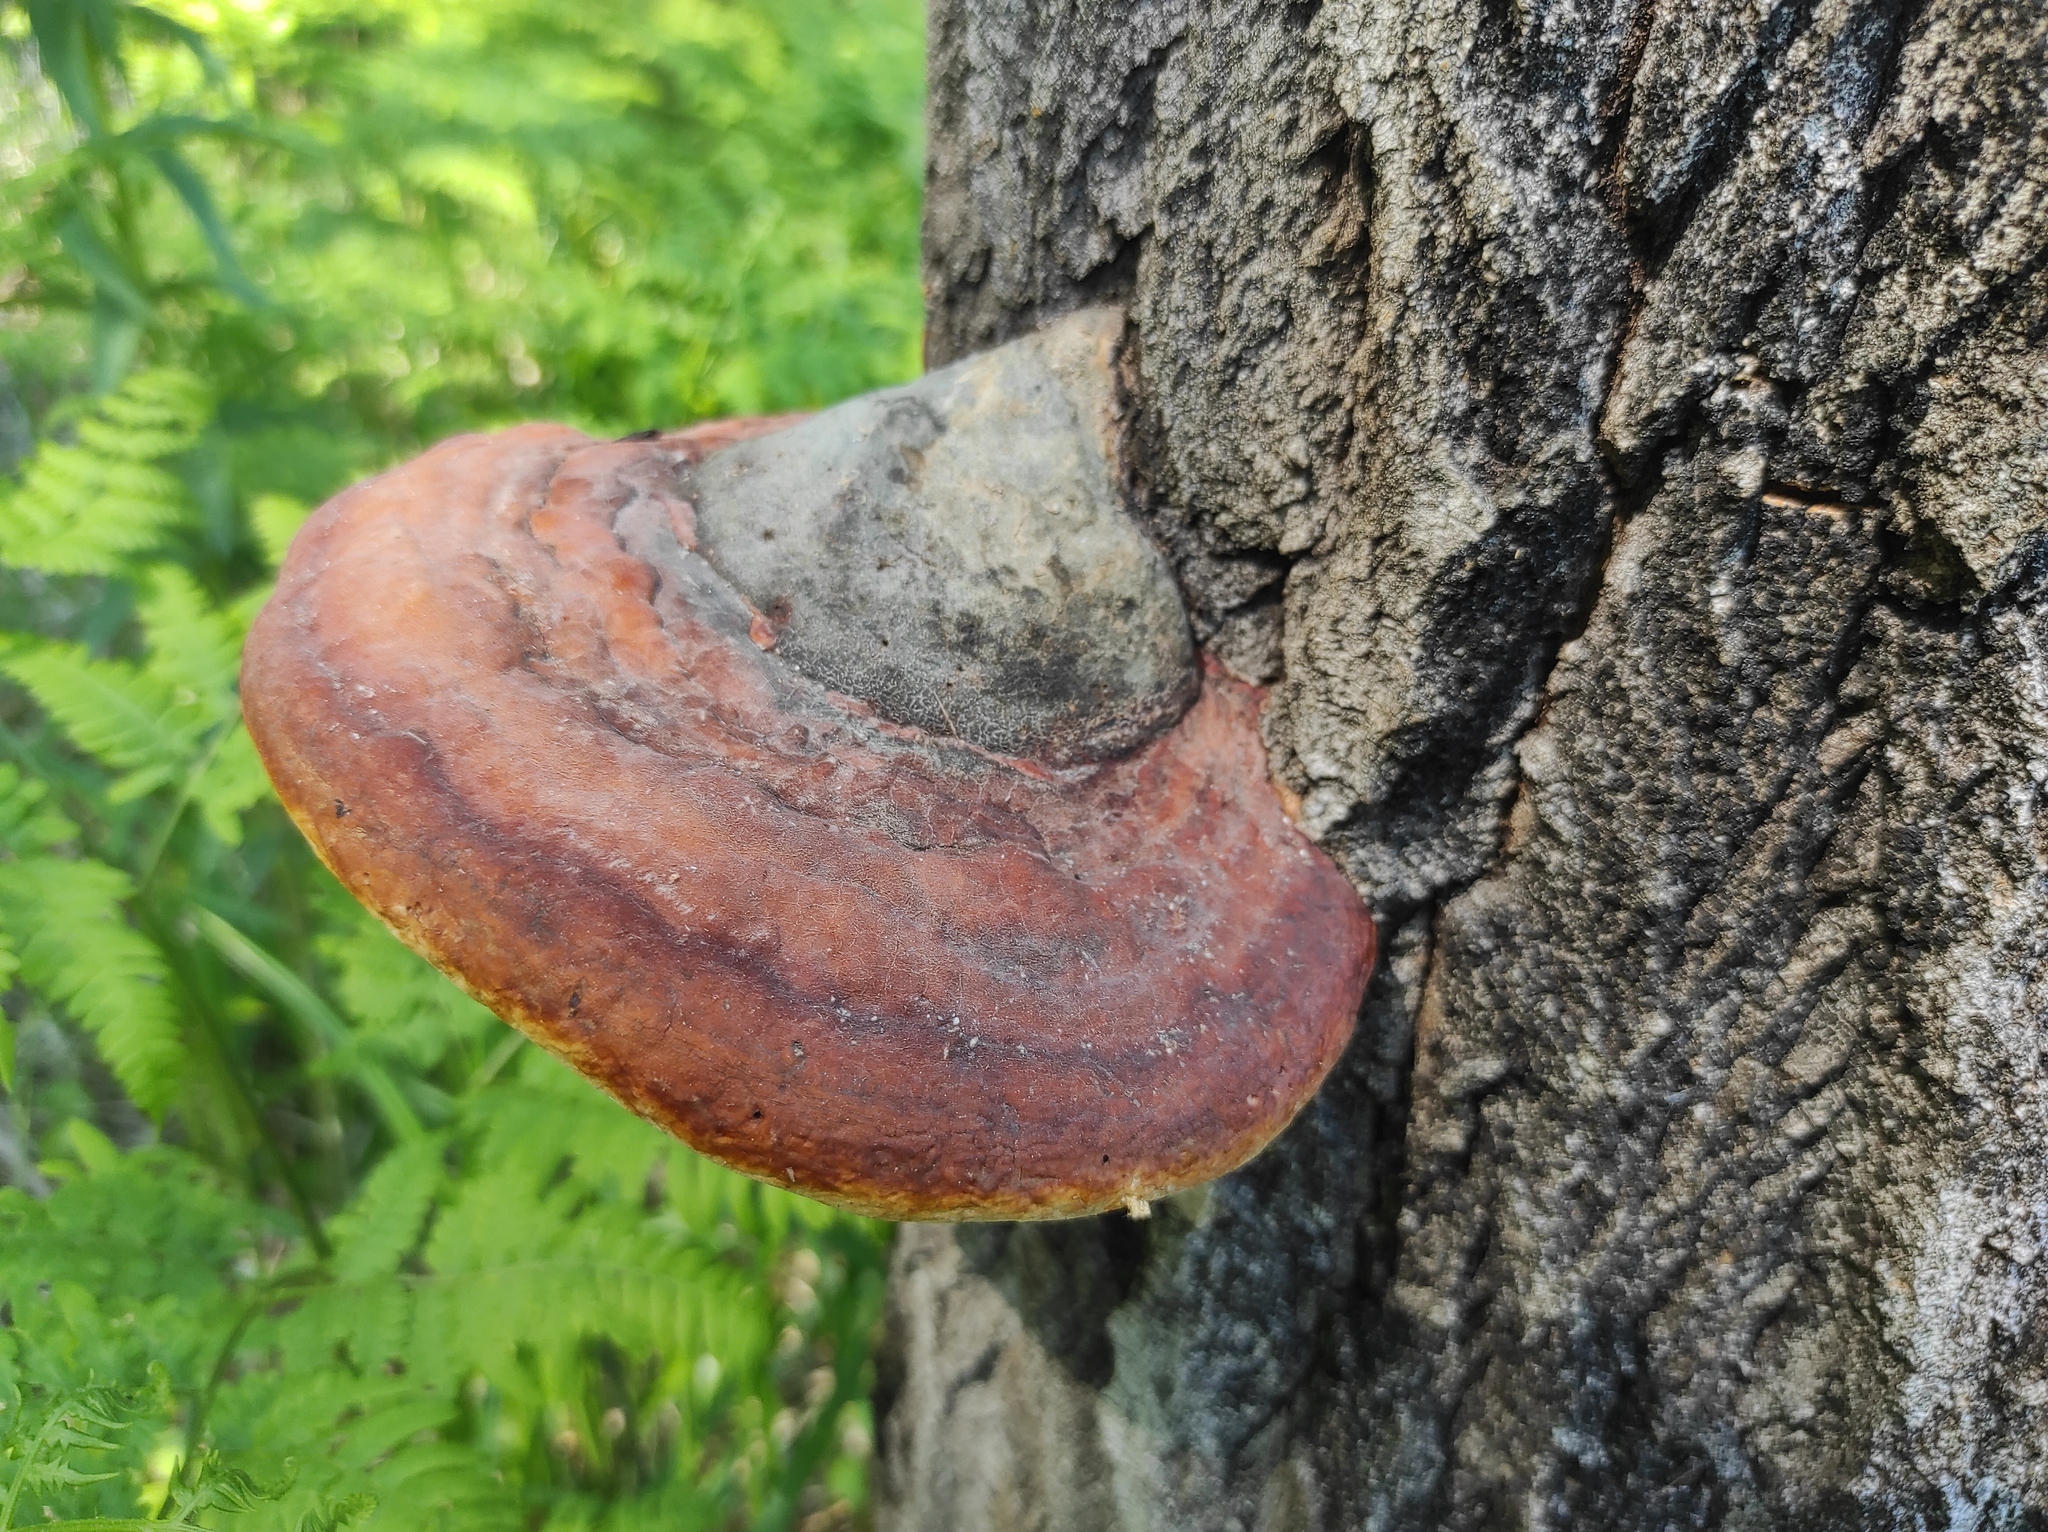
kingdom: Fungi
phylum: Basidiomycota
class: Agaricomycetes
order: Polyporales
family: Fomitopsidaceae
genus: Fomitopsis
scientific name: Fomitopsis pinicola
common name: Red-belted bracket
